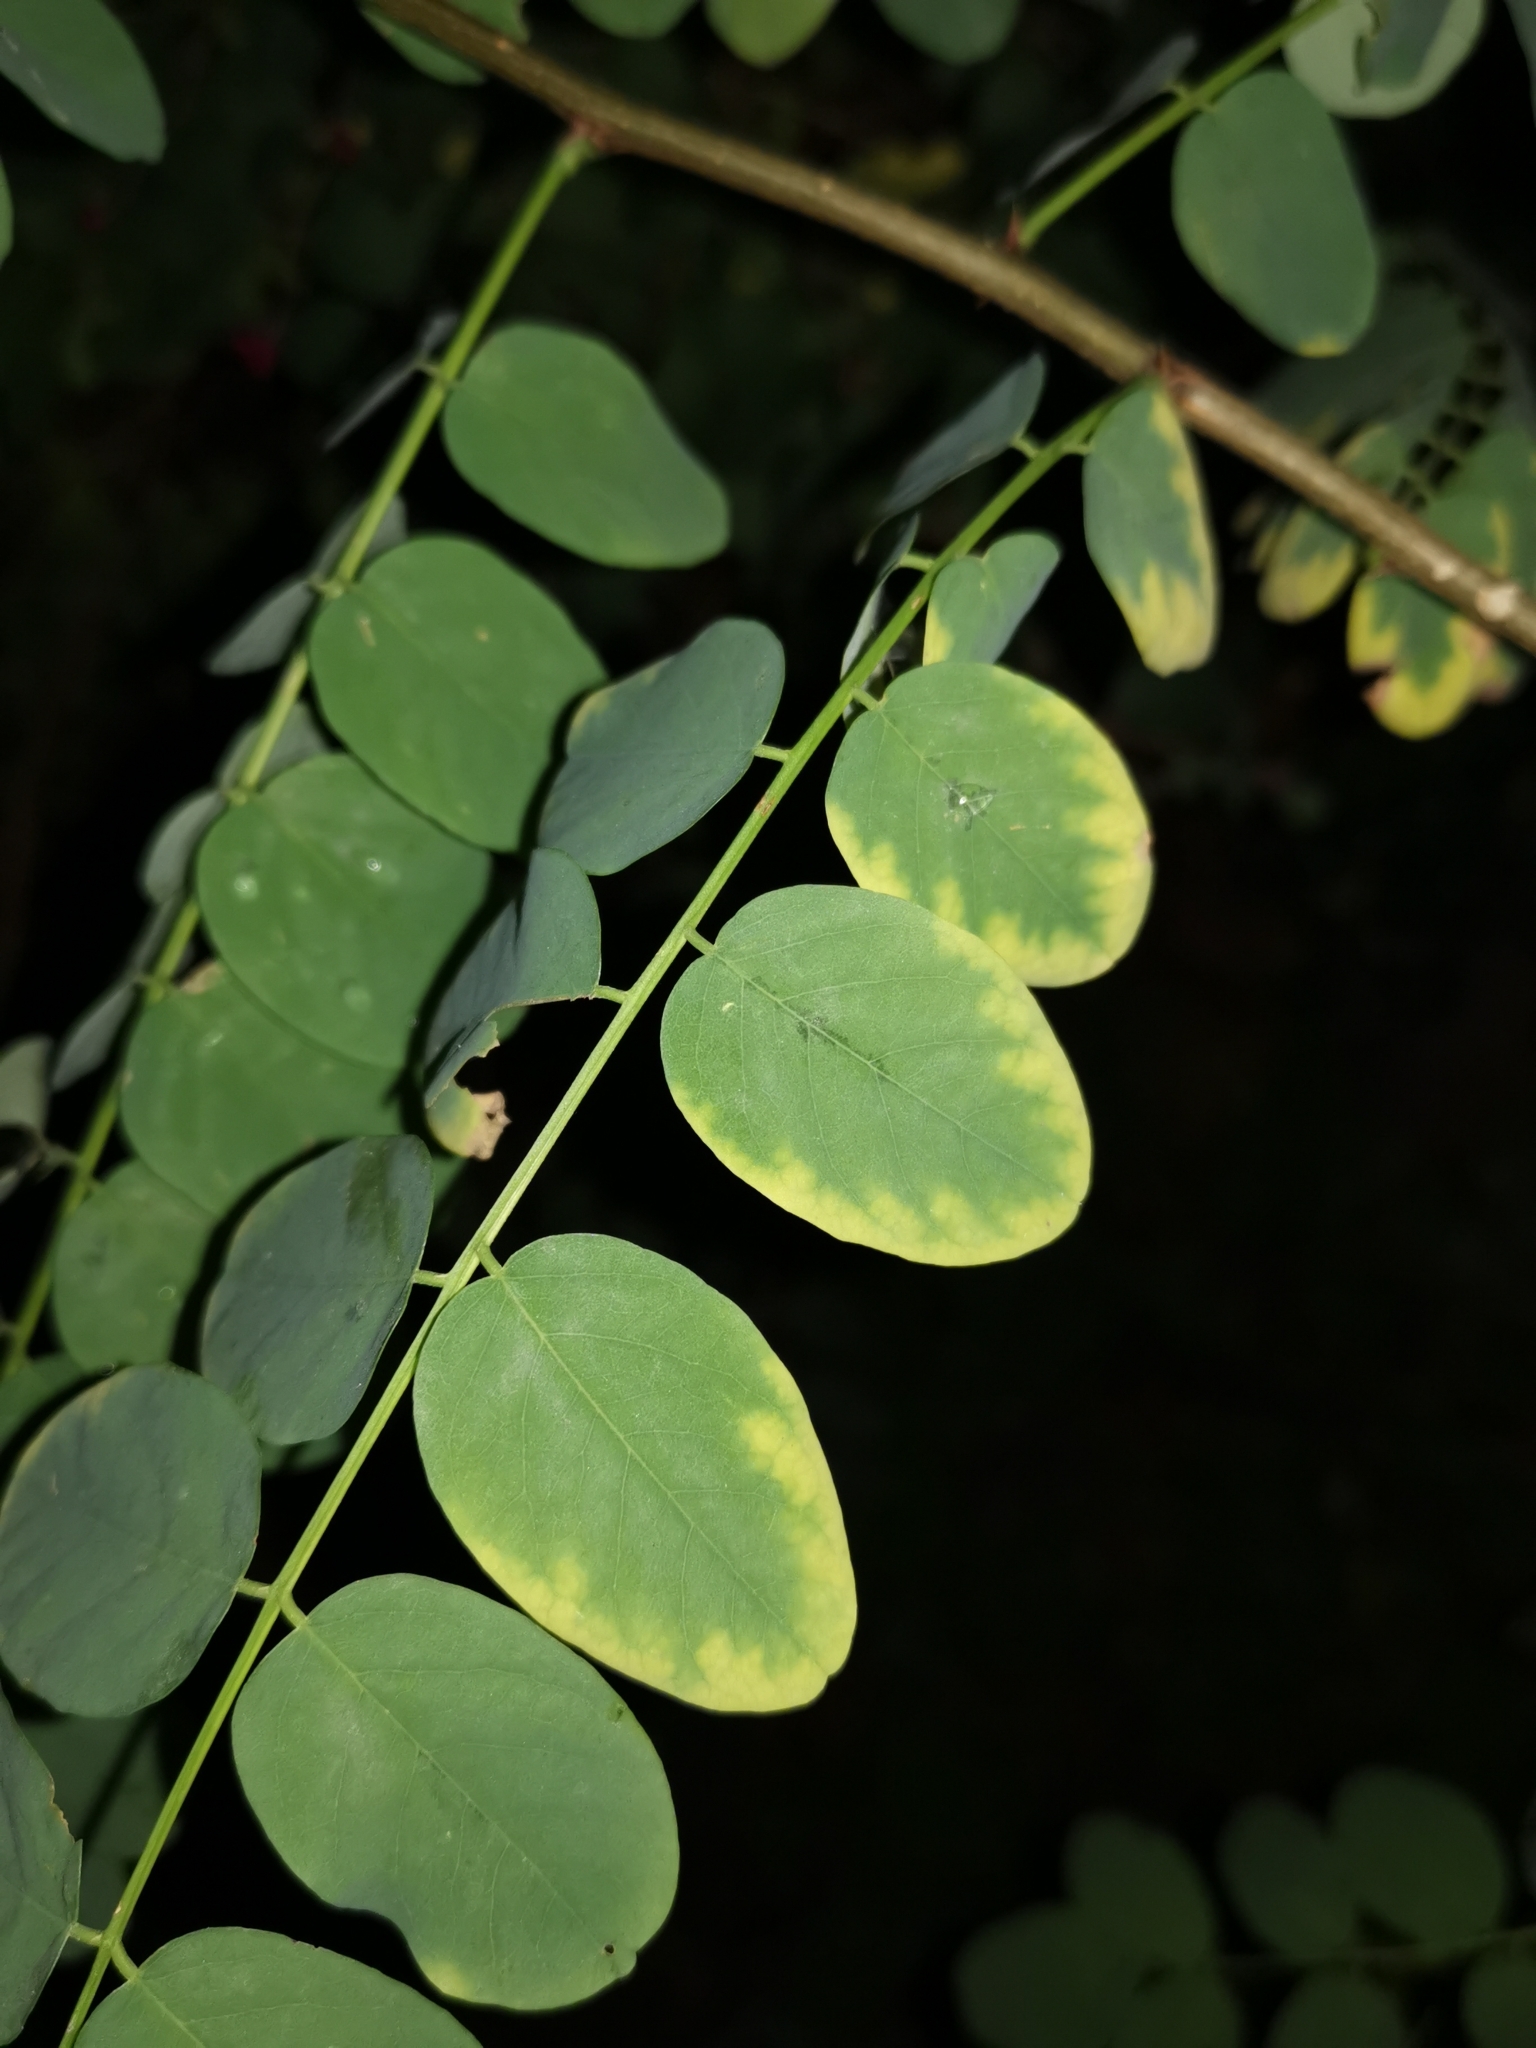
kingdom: Plantae
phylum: Tracheophyta
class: Magnoliopsida
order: Fabales
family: Fabaceae
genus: Robinia
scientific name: Robinia pseudoacacia
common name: Black locust
